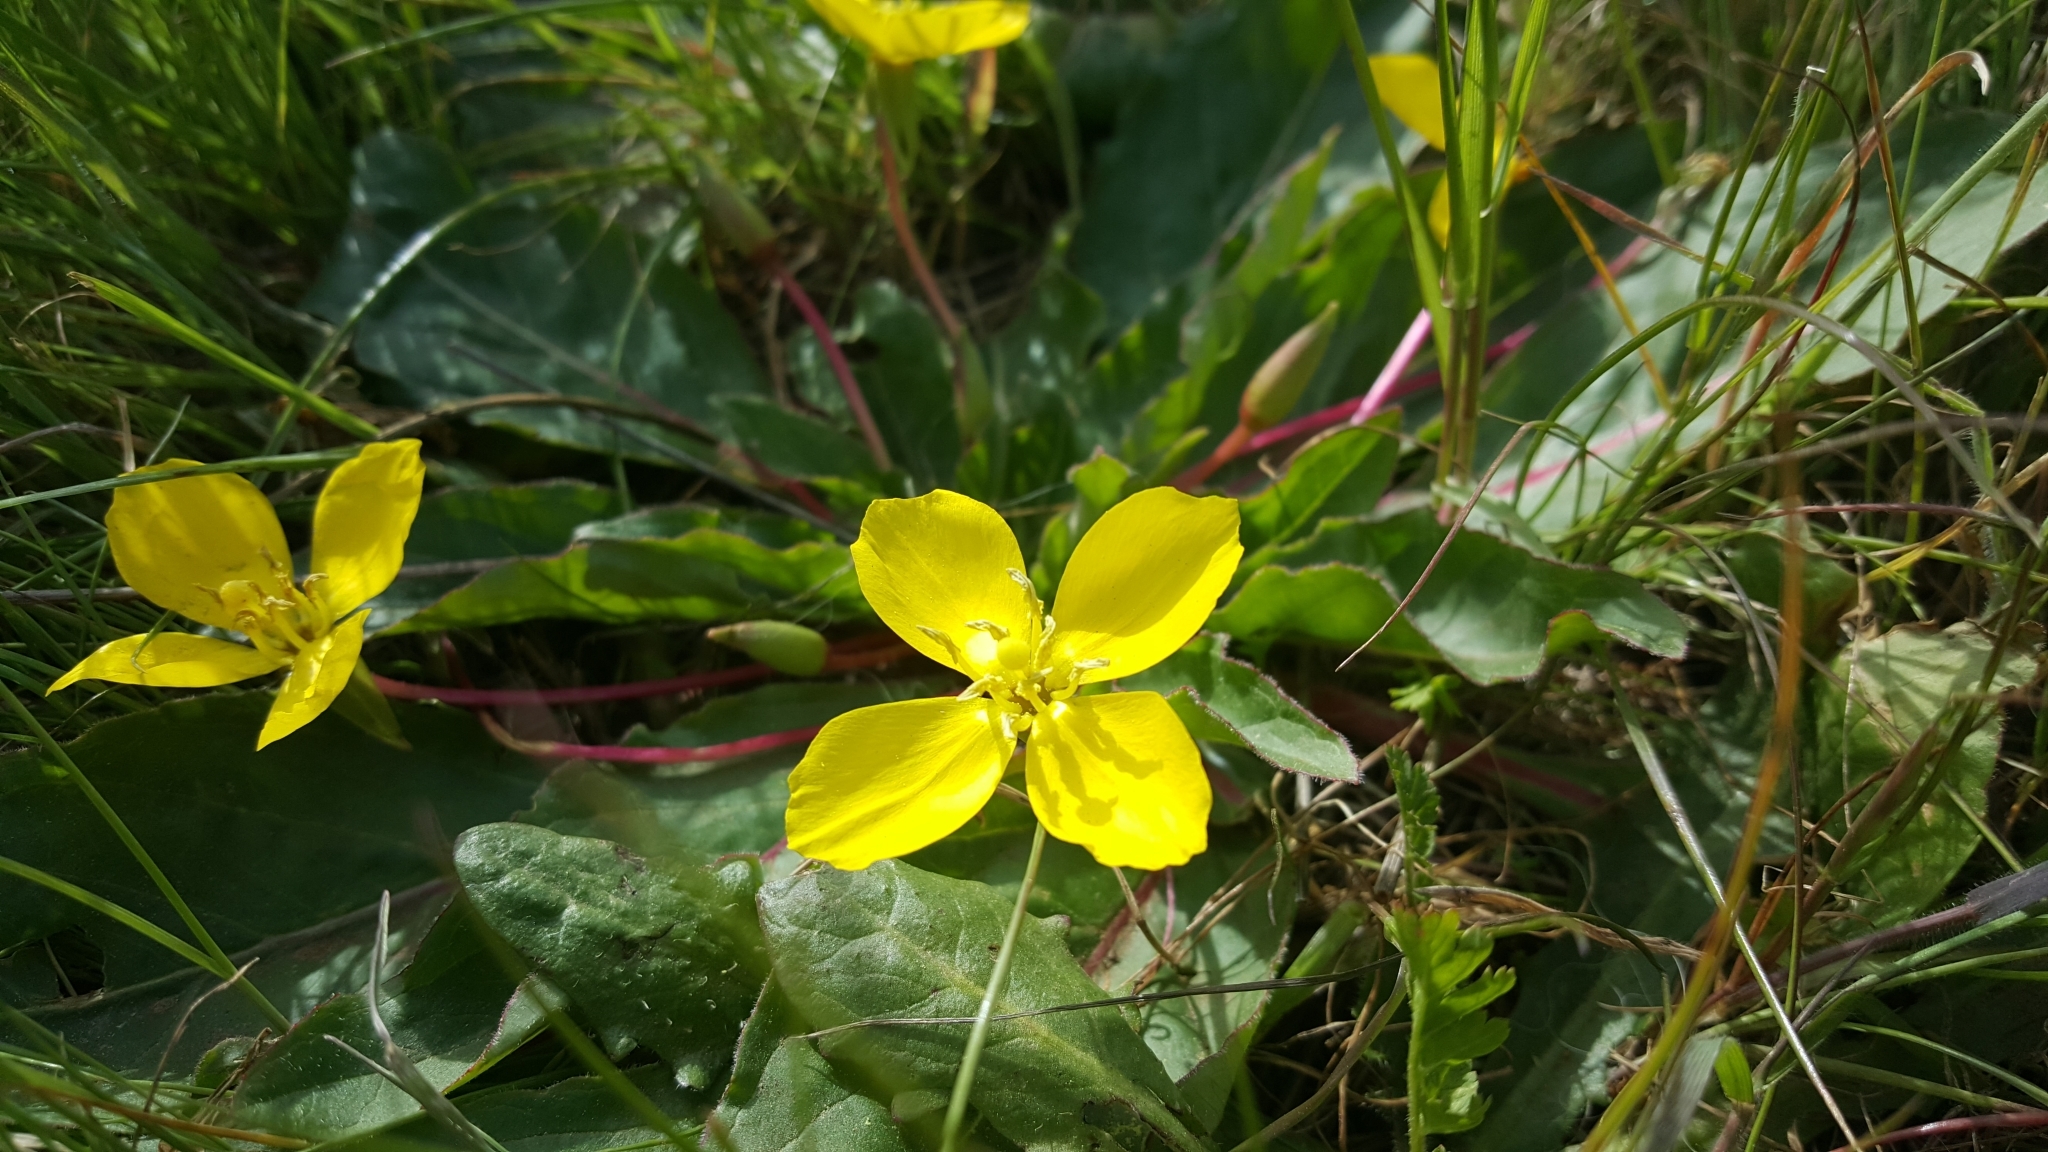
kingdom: Plantae
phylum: Tracheophyta
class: Magnoliopsida
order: Myrtales
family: Onagraceae
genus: Taraxia
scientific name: Taraxia ovata
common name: Goldeneggs
